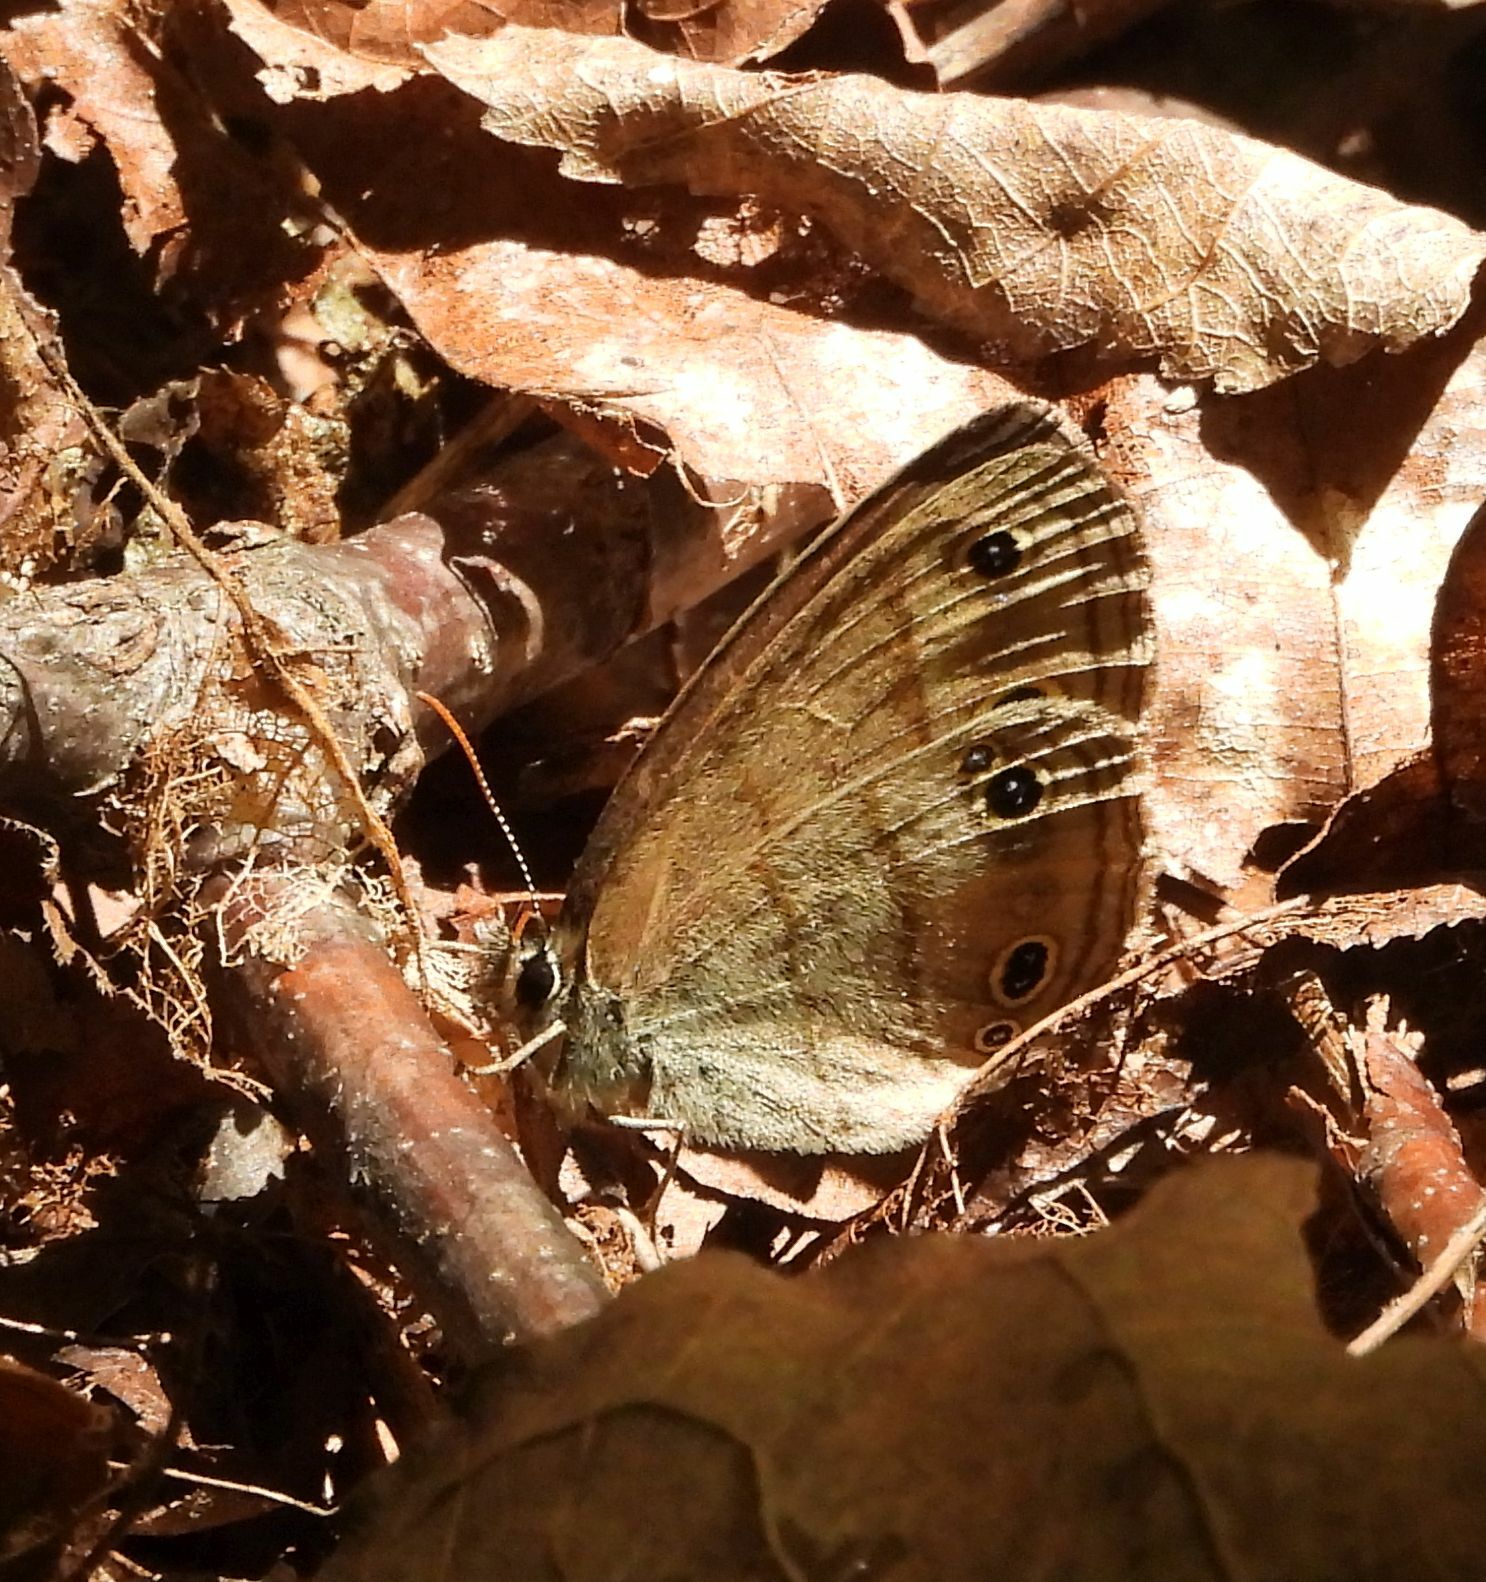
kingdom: Animalia
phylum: Arthropoda
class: Insecta
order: Lepidoptera
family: Nymphalidae
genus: Euptychia
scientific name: Euptychia cymela
